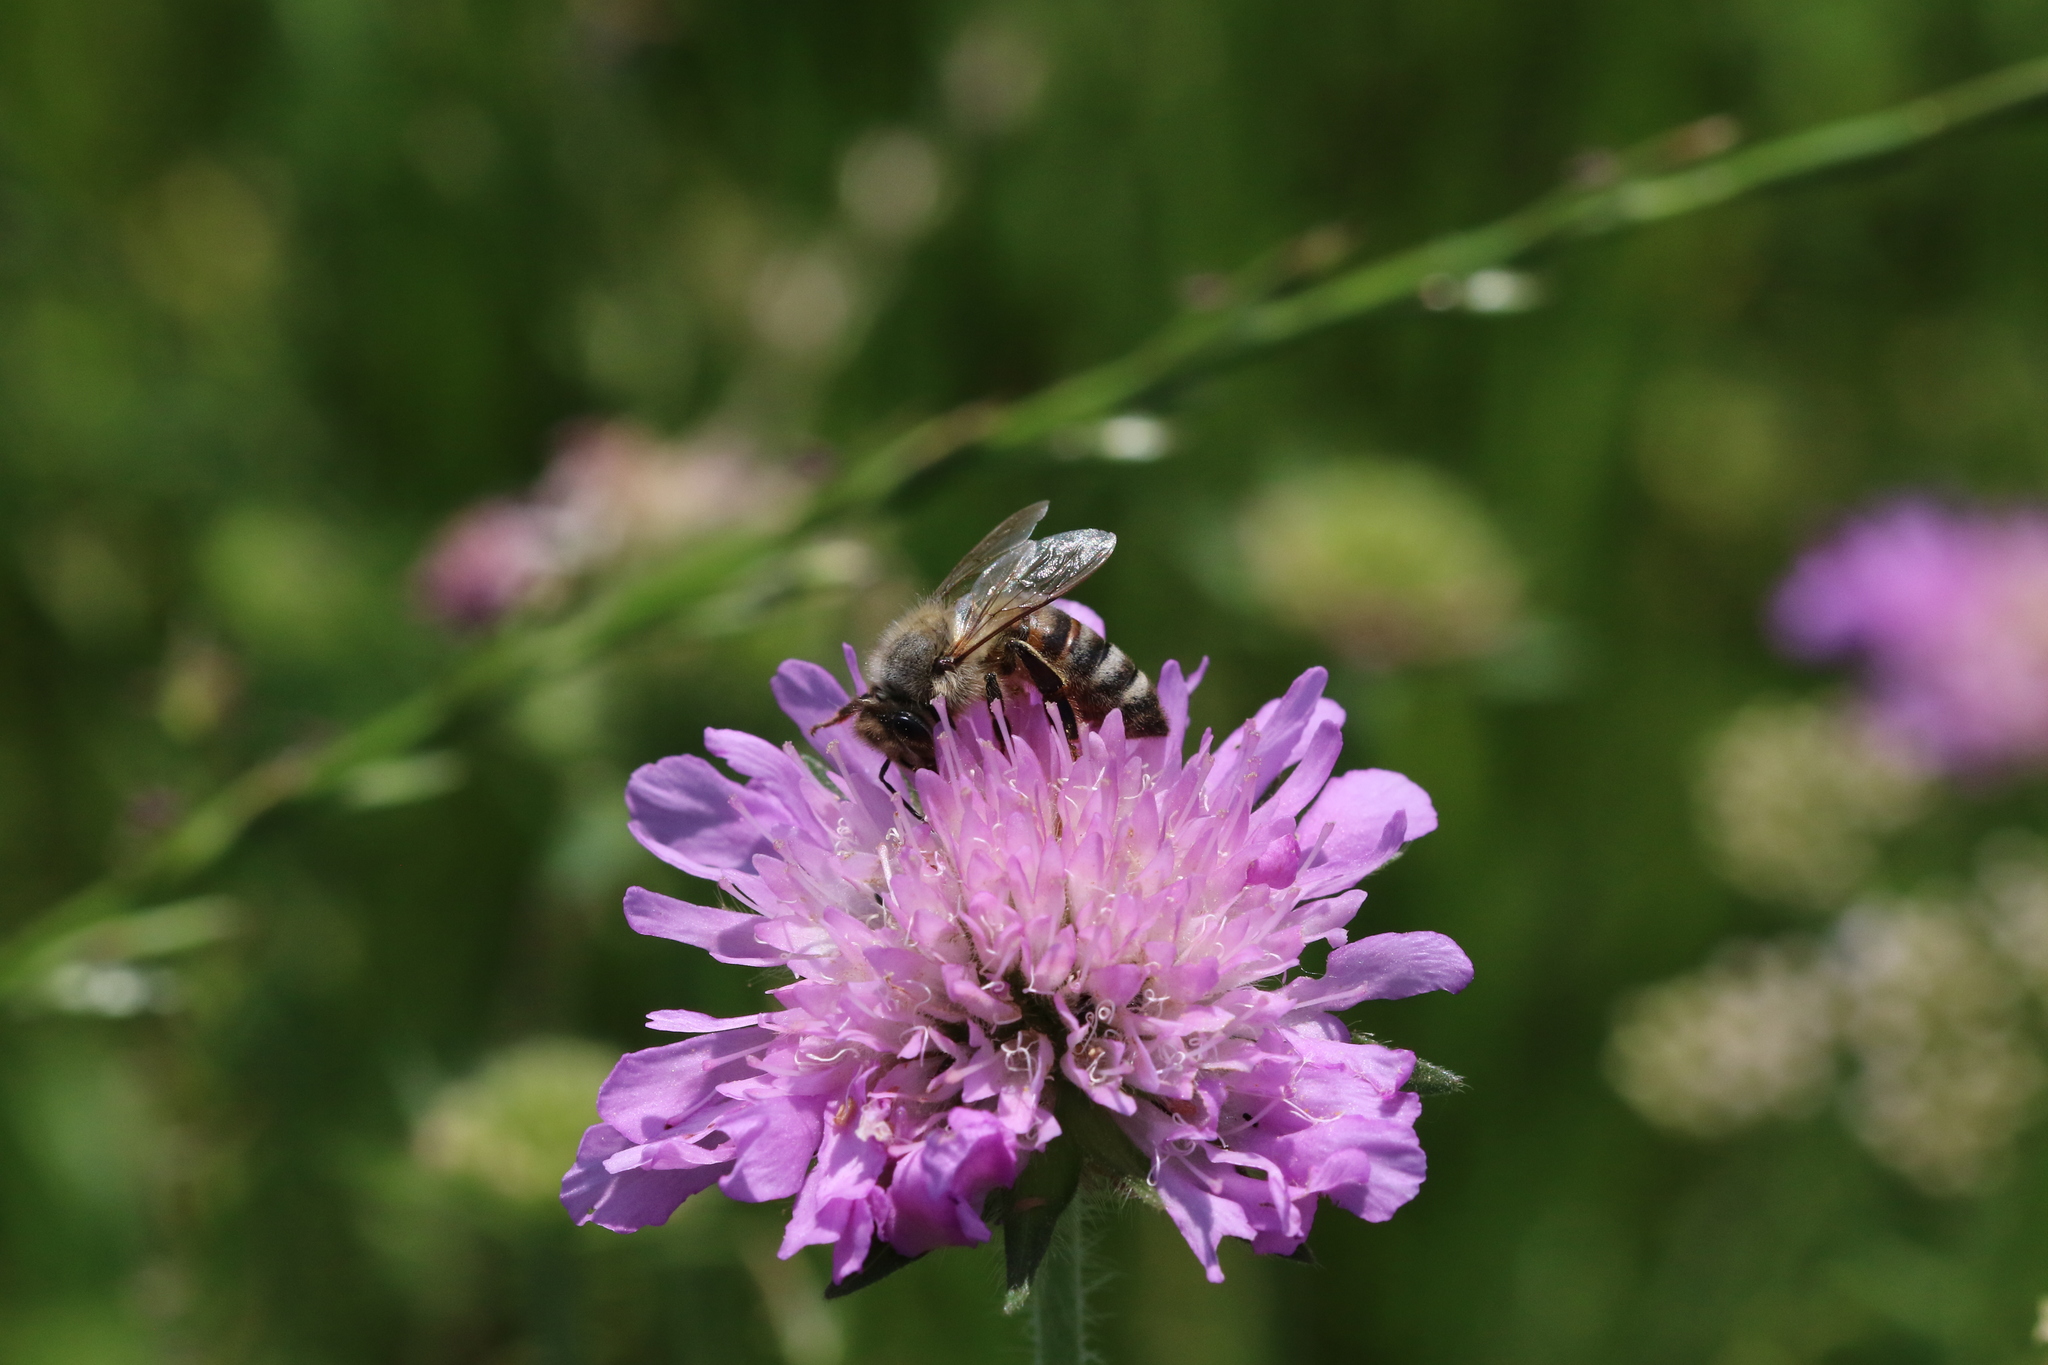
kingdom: Animalia
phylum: Arthropoda
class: Insecta
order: Hymenoptera
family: Apidae
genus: Apis
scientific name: Apis mellifera
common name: Honey bee
